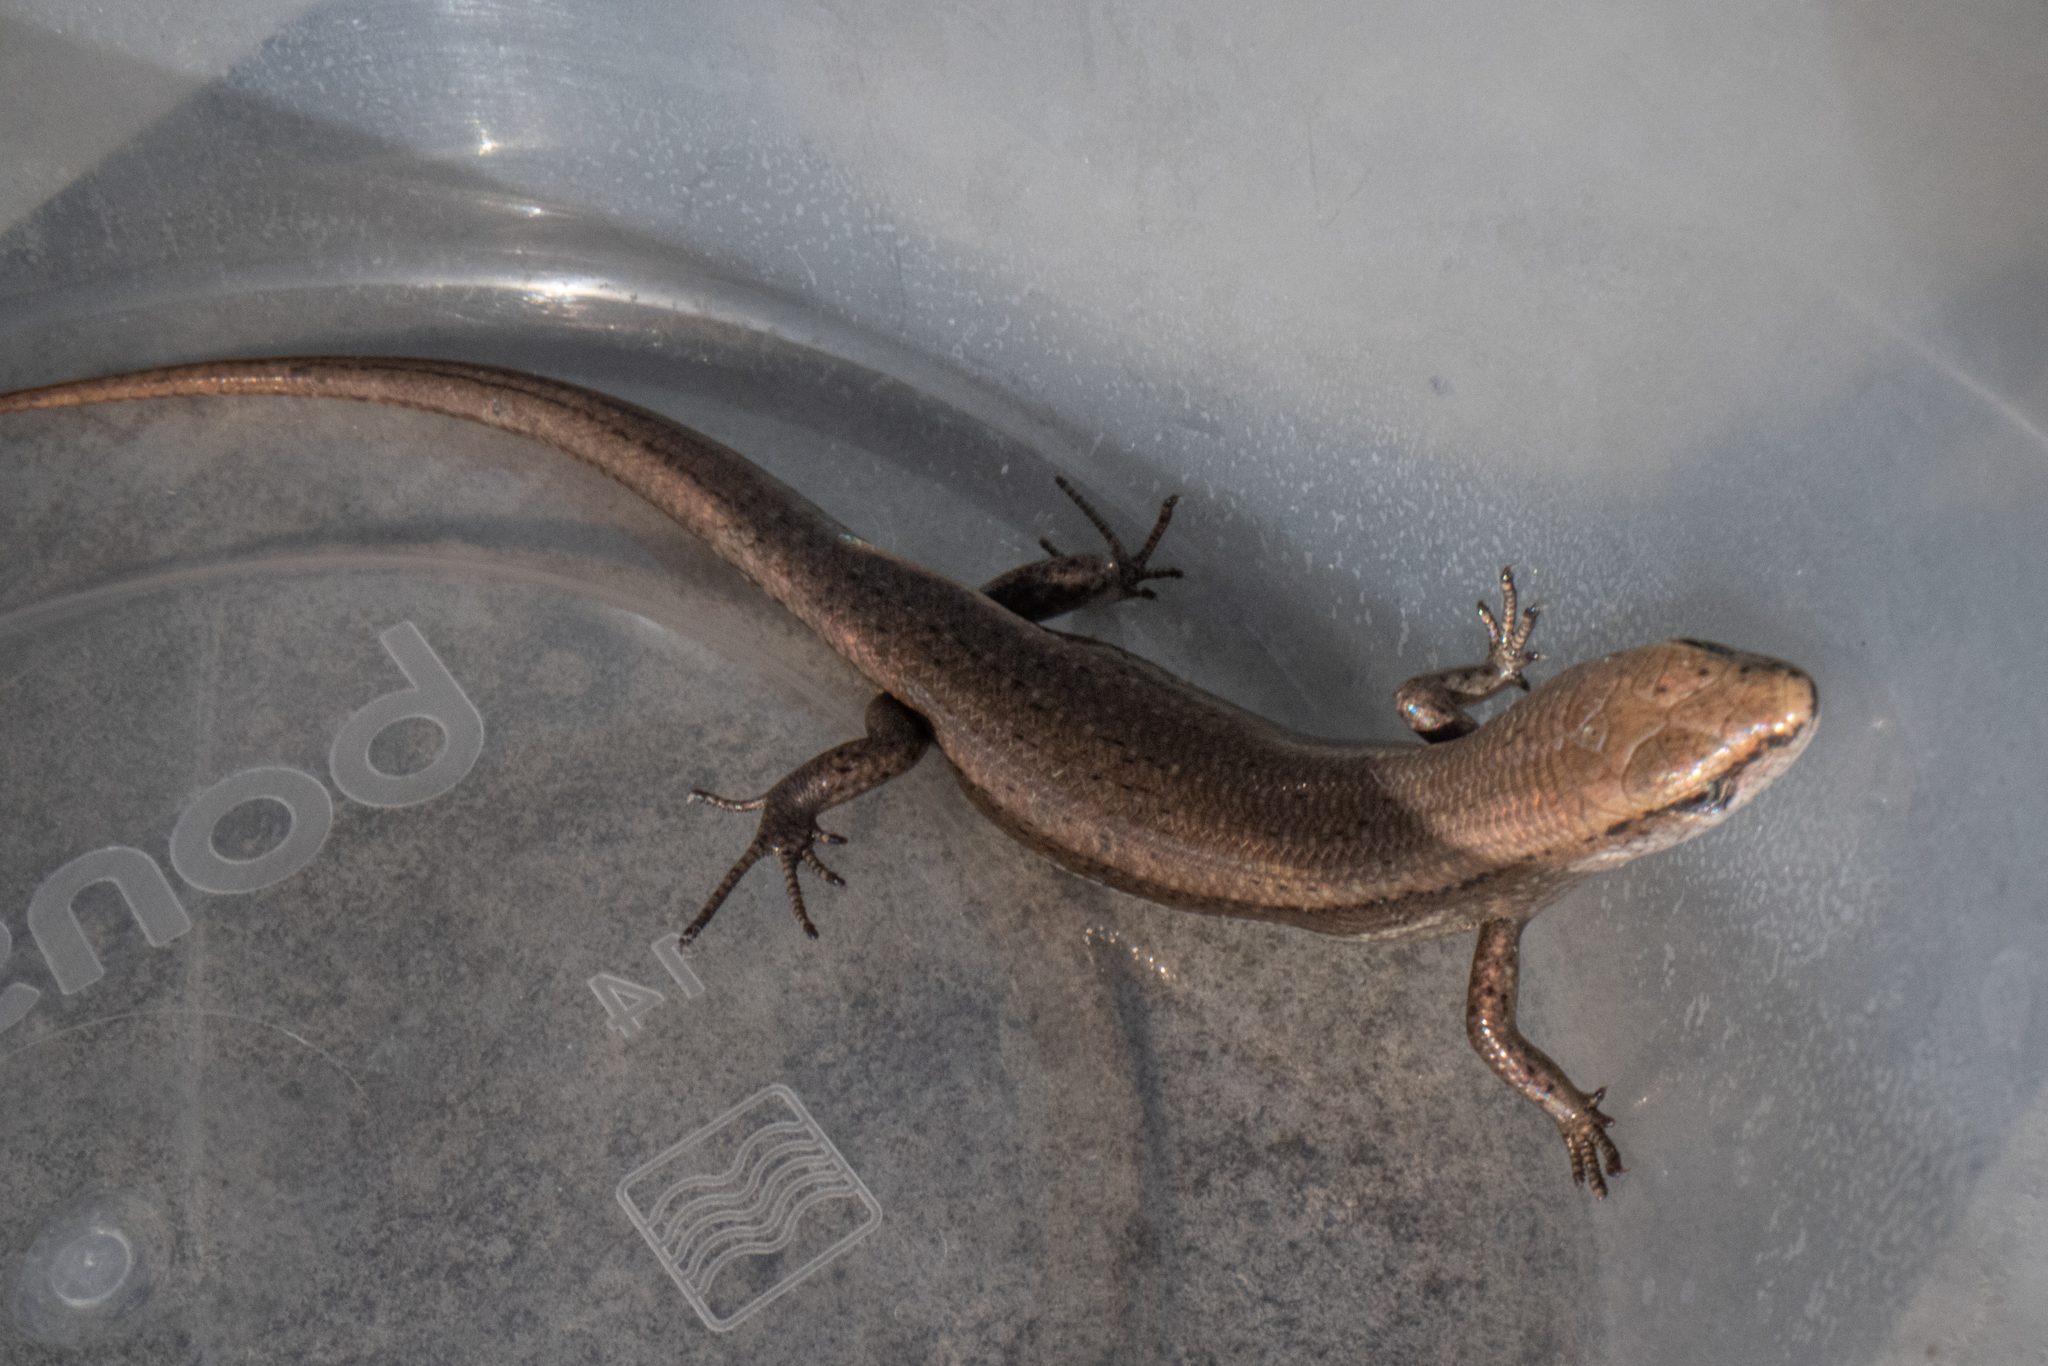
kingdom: Animalia
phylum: Chordata
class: Squamata
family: Scincidae
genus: Lampropholis
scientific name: Lampropholis delicata
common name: Plague skink
